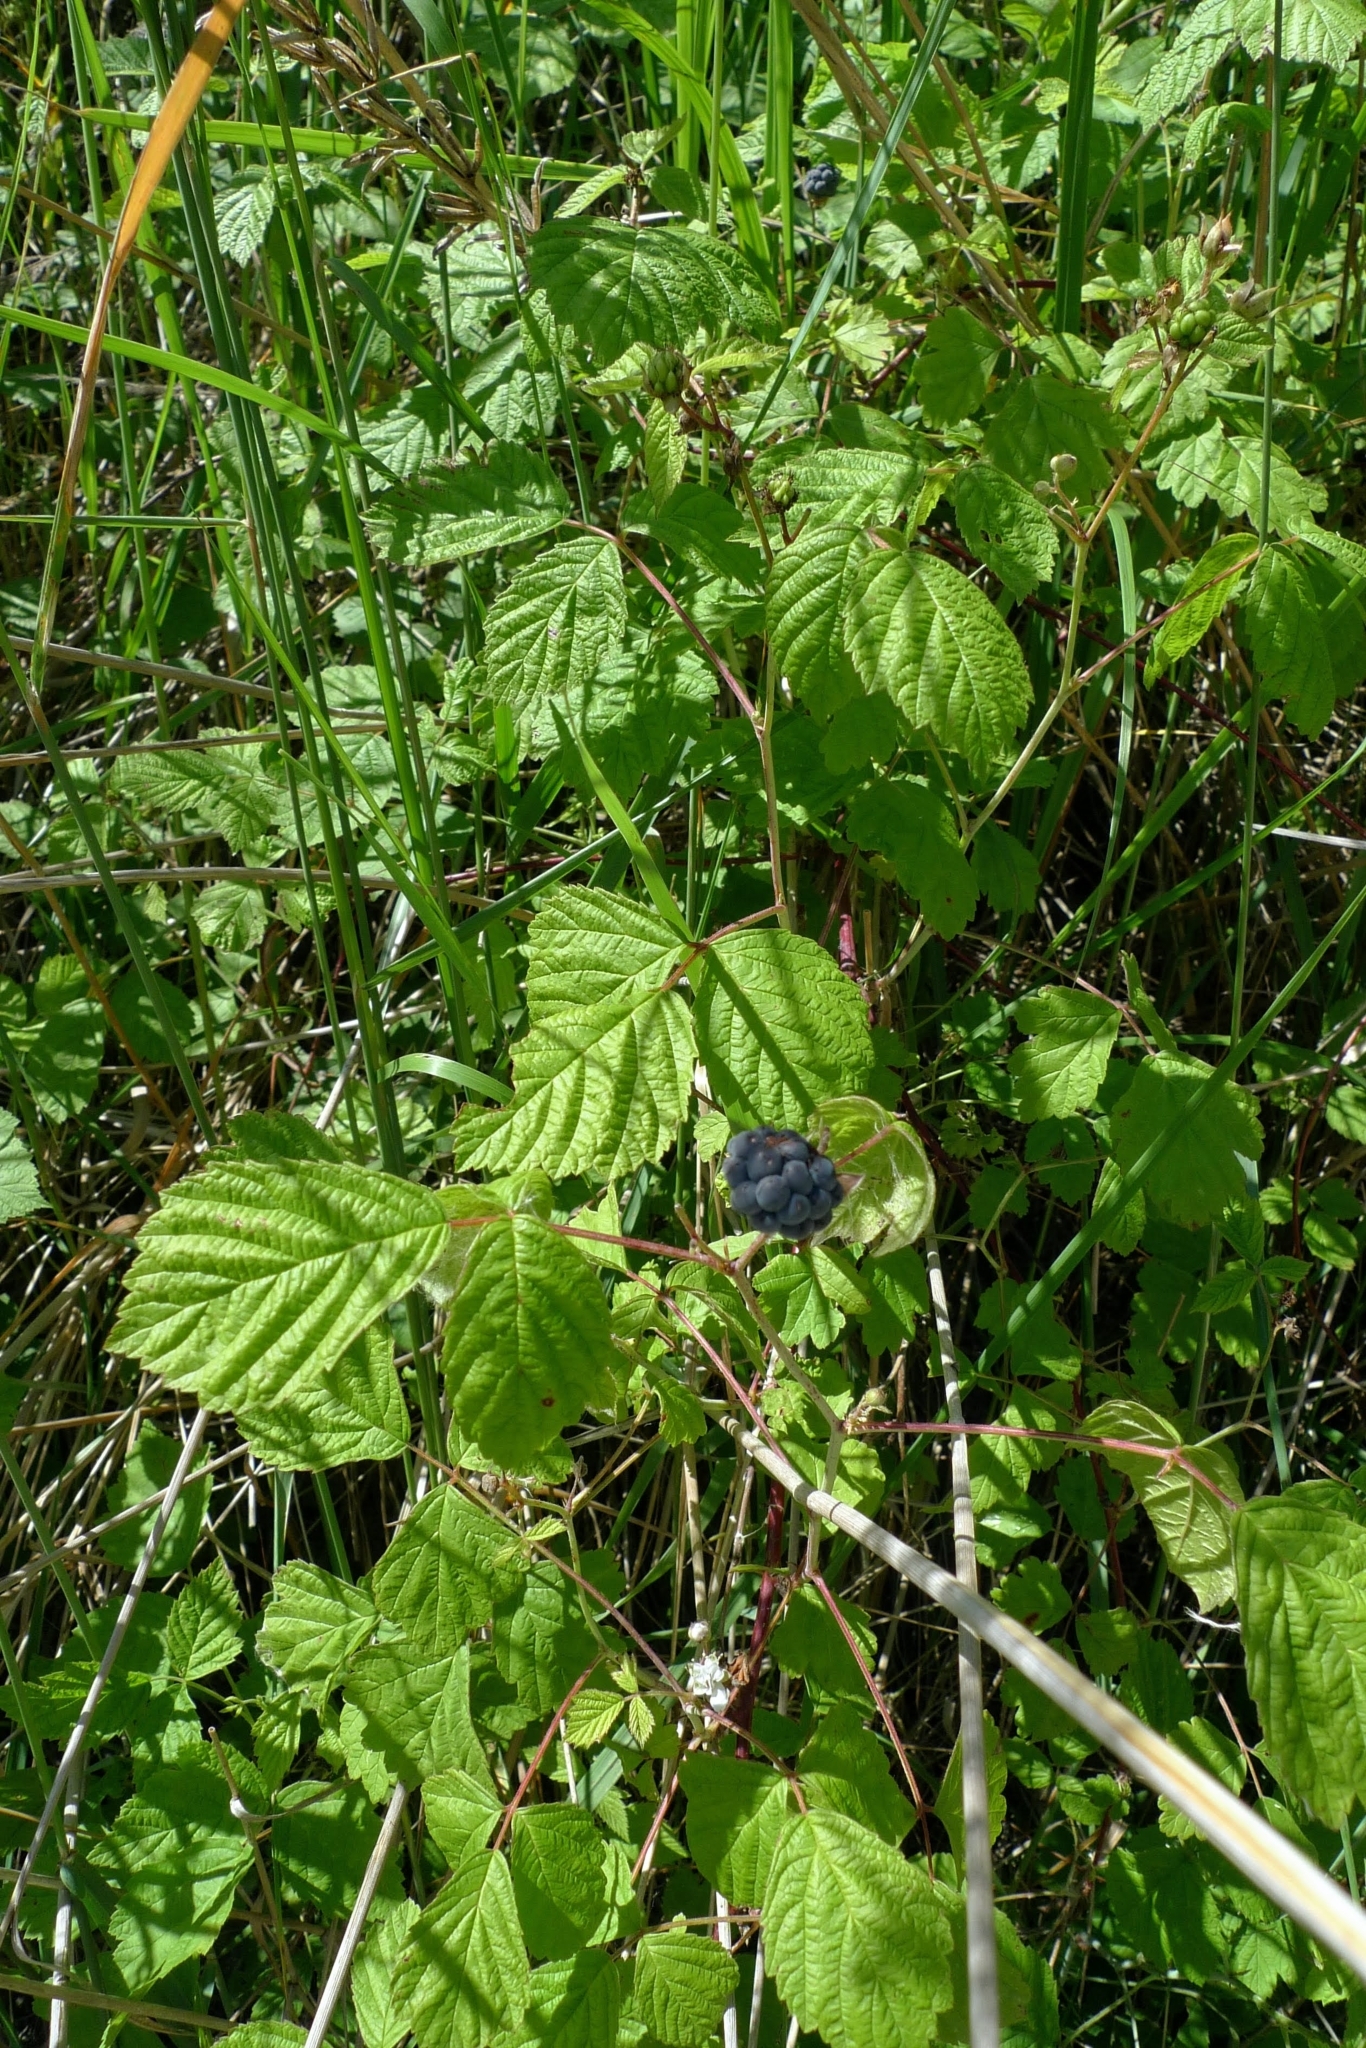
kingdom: Plantae
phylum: Tracheophyta
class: Magnoliopsida
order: Rosales
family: Rosaceae
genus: Rubus
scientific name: Rubus caesius
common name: Dewberry
